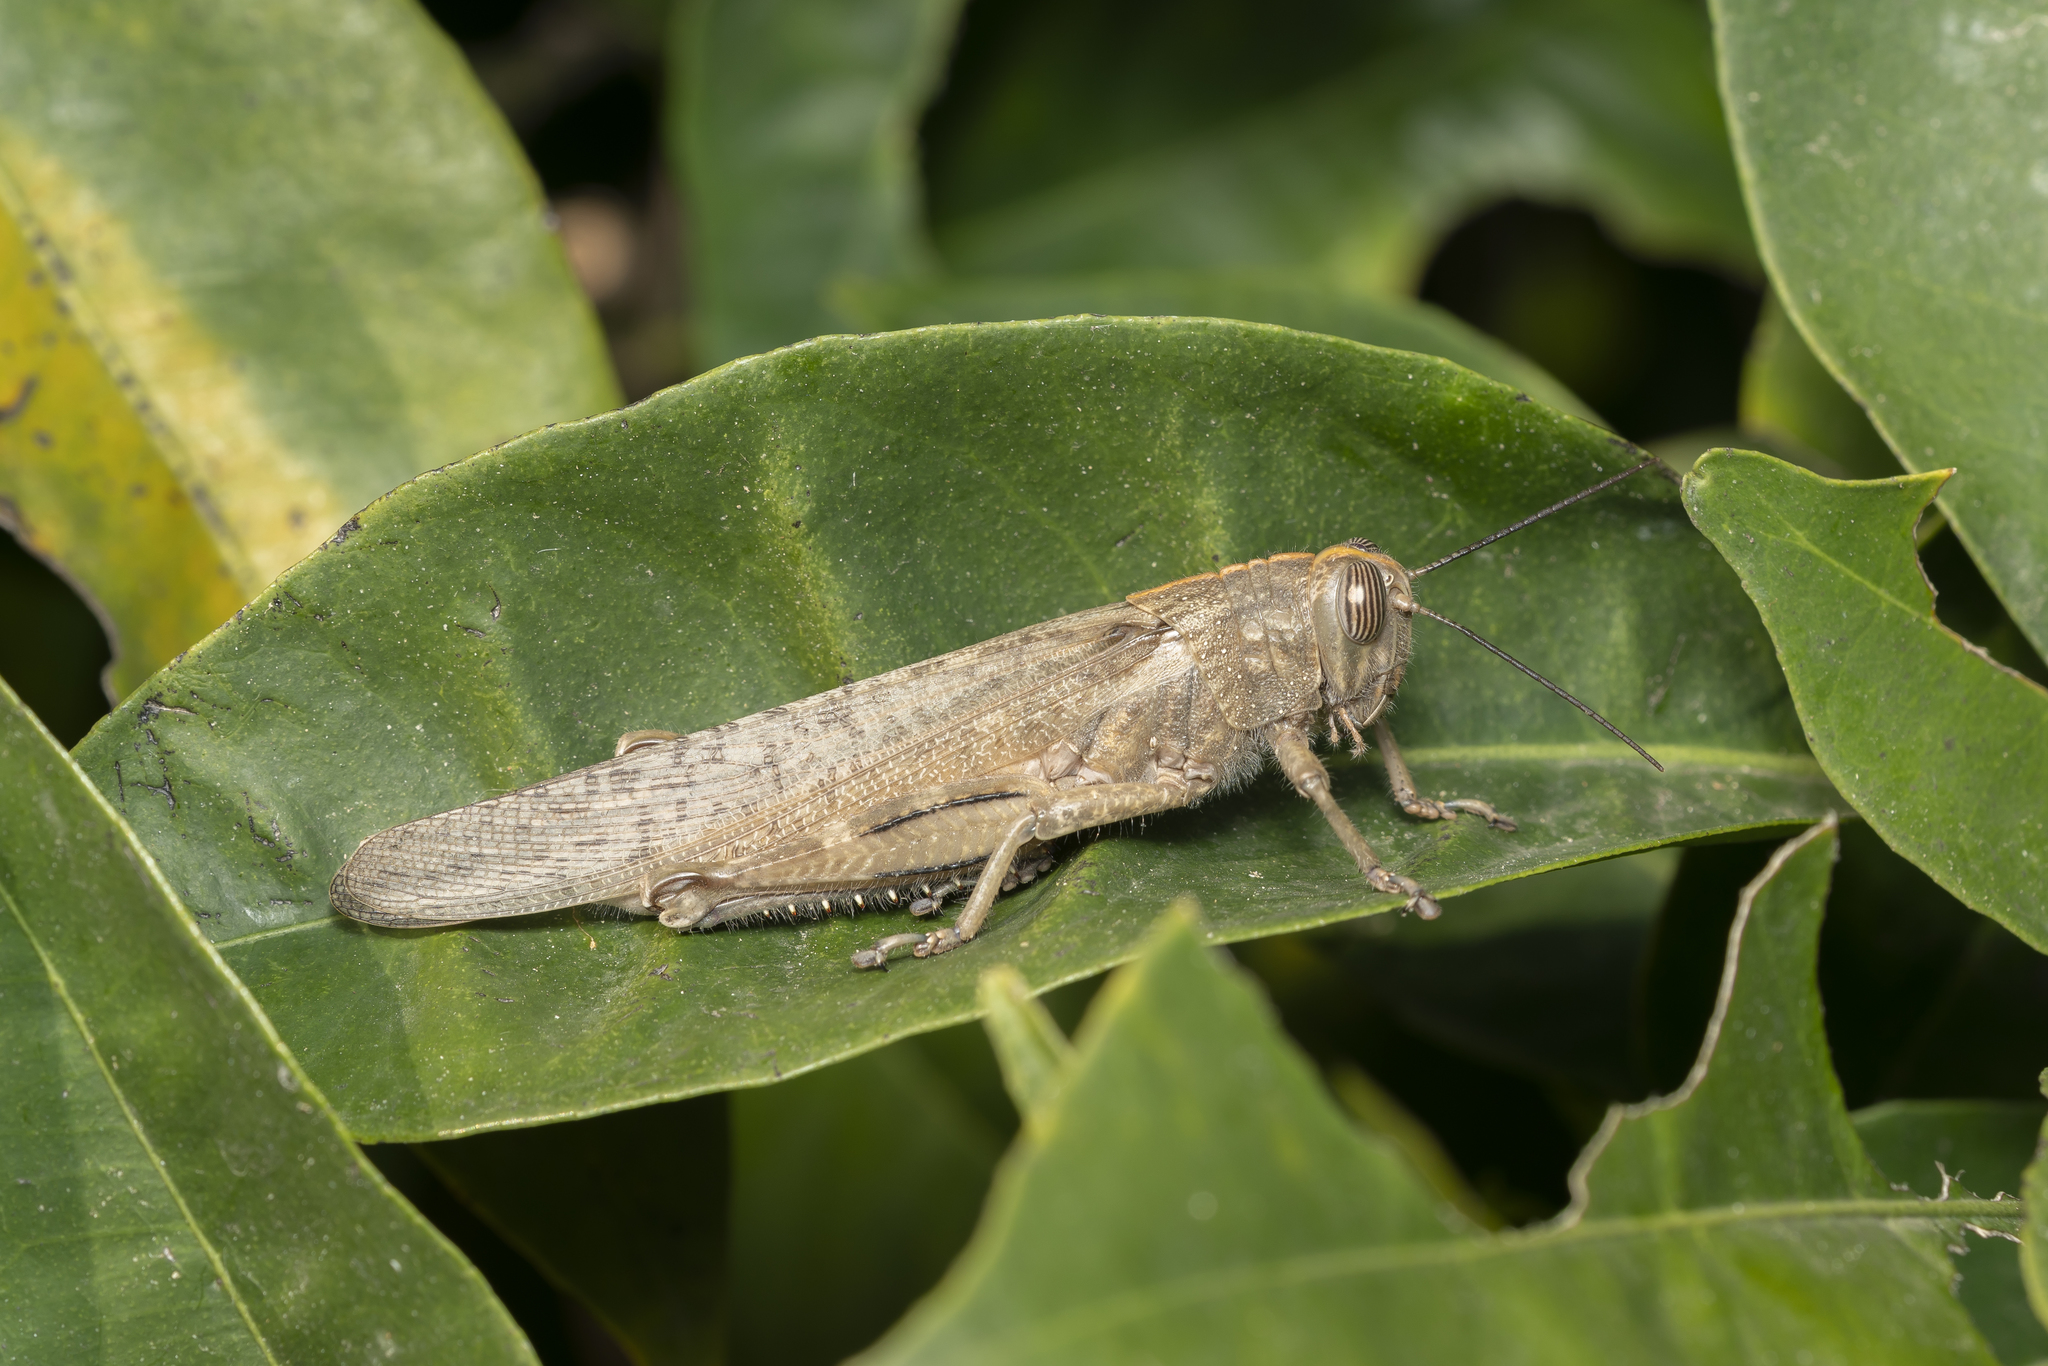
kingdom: Animalia
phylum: Arthropoda
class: Insecta
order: Orthoptera
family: Acrididae
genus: Anacridium
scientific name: Anacridium aegyptium
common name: Egyptian grasshopper
